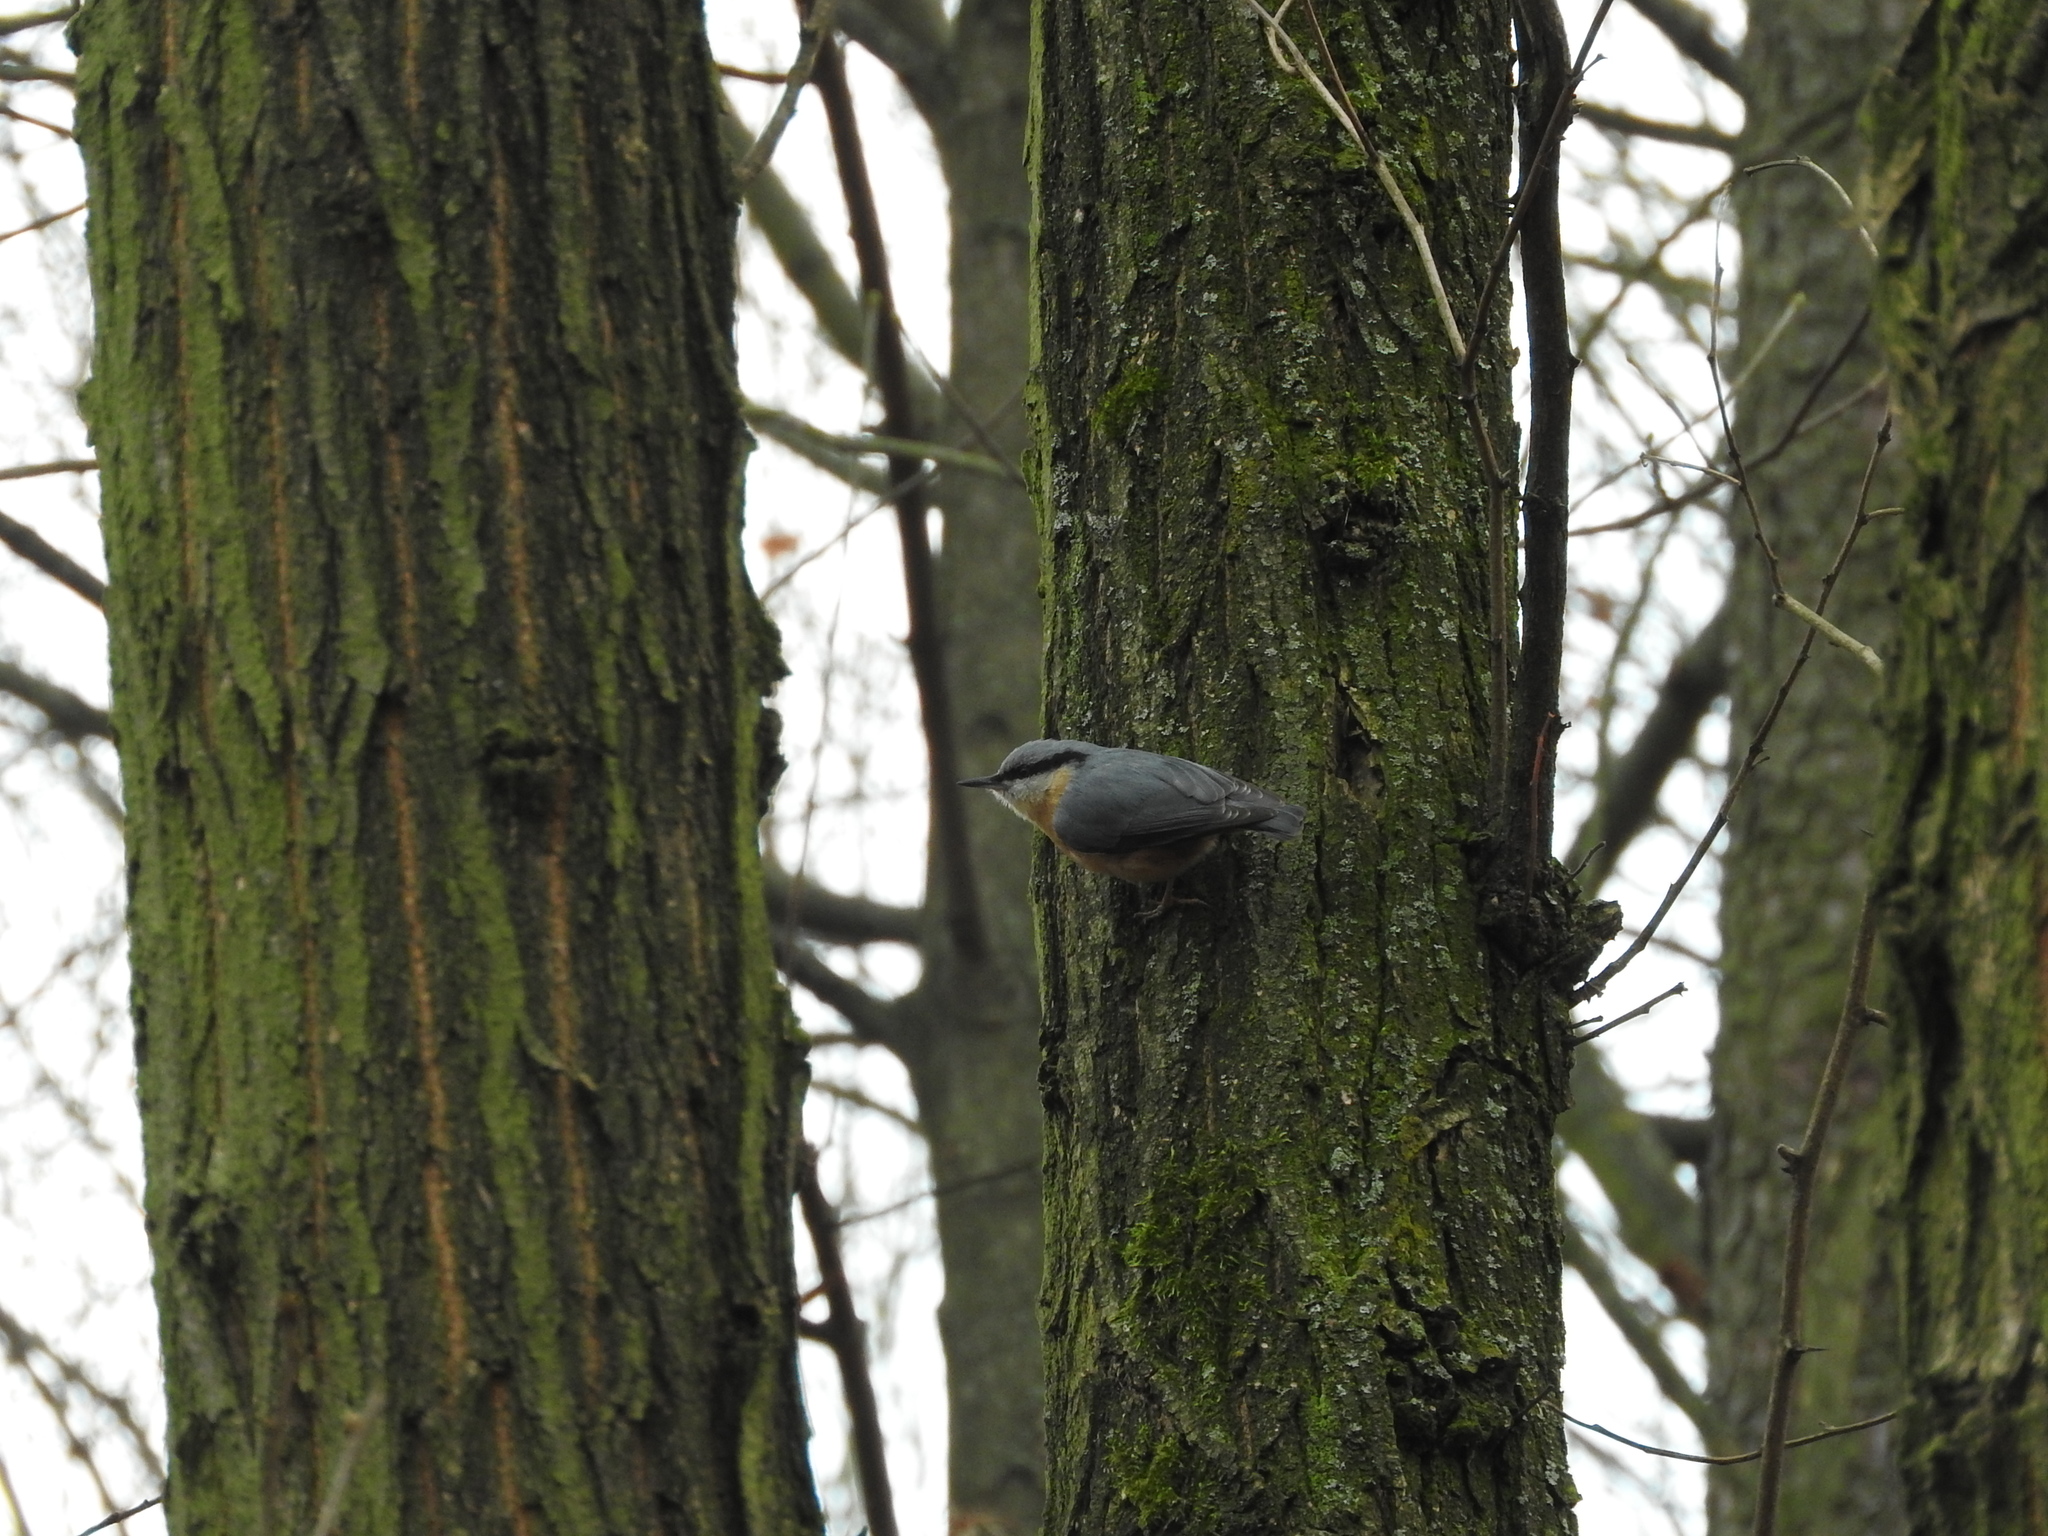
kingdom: Animalia
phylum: Chordata
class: Aves
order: Passeriformes
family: Sittidae
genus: Sitta
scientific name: Sitta europaea
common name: Eurasian nuthatch
